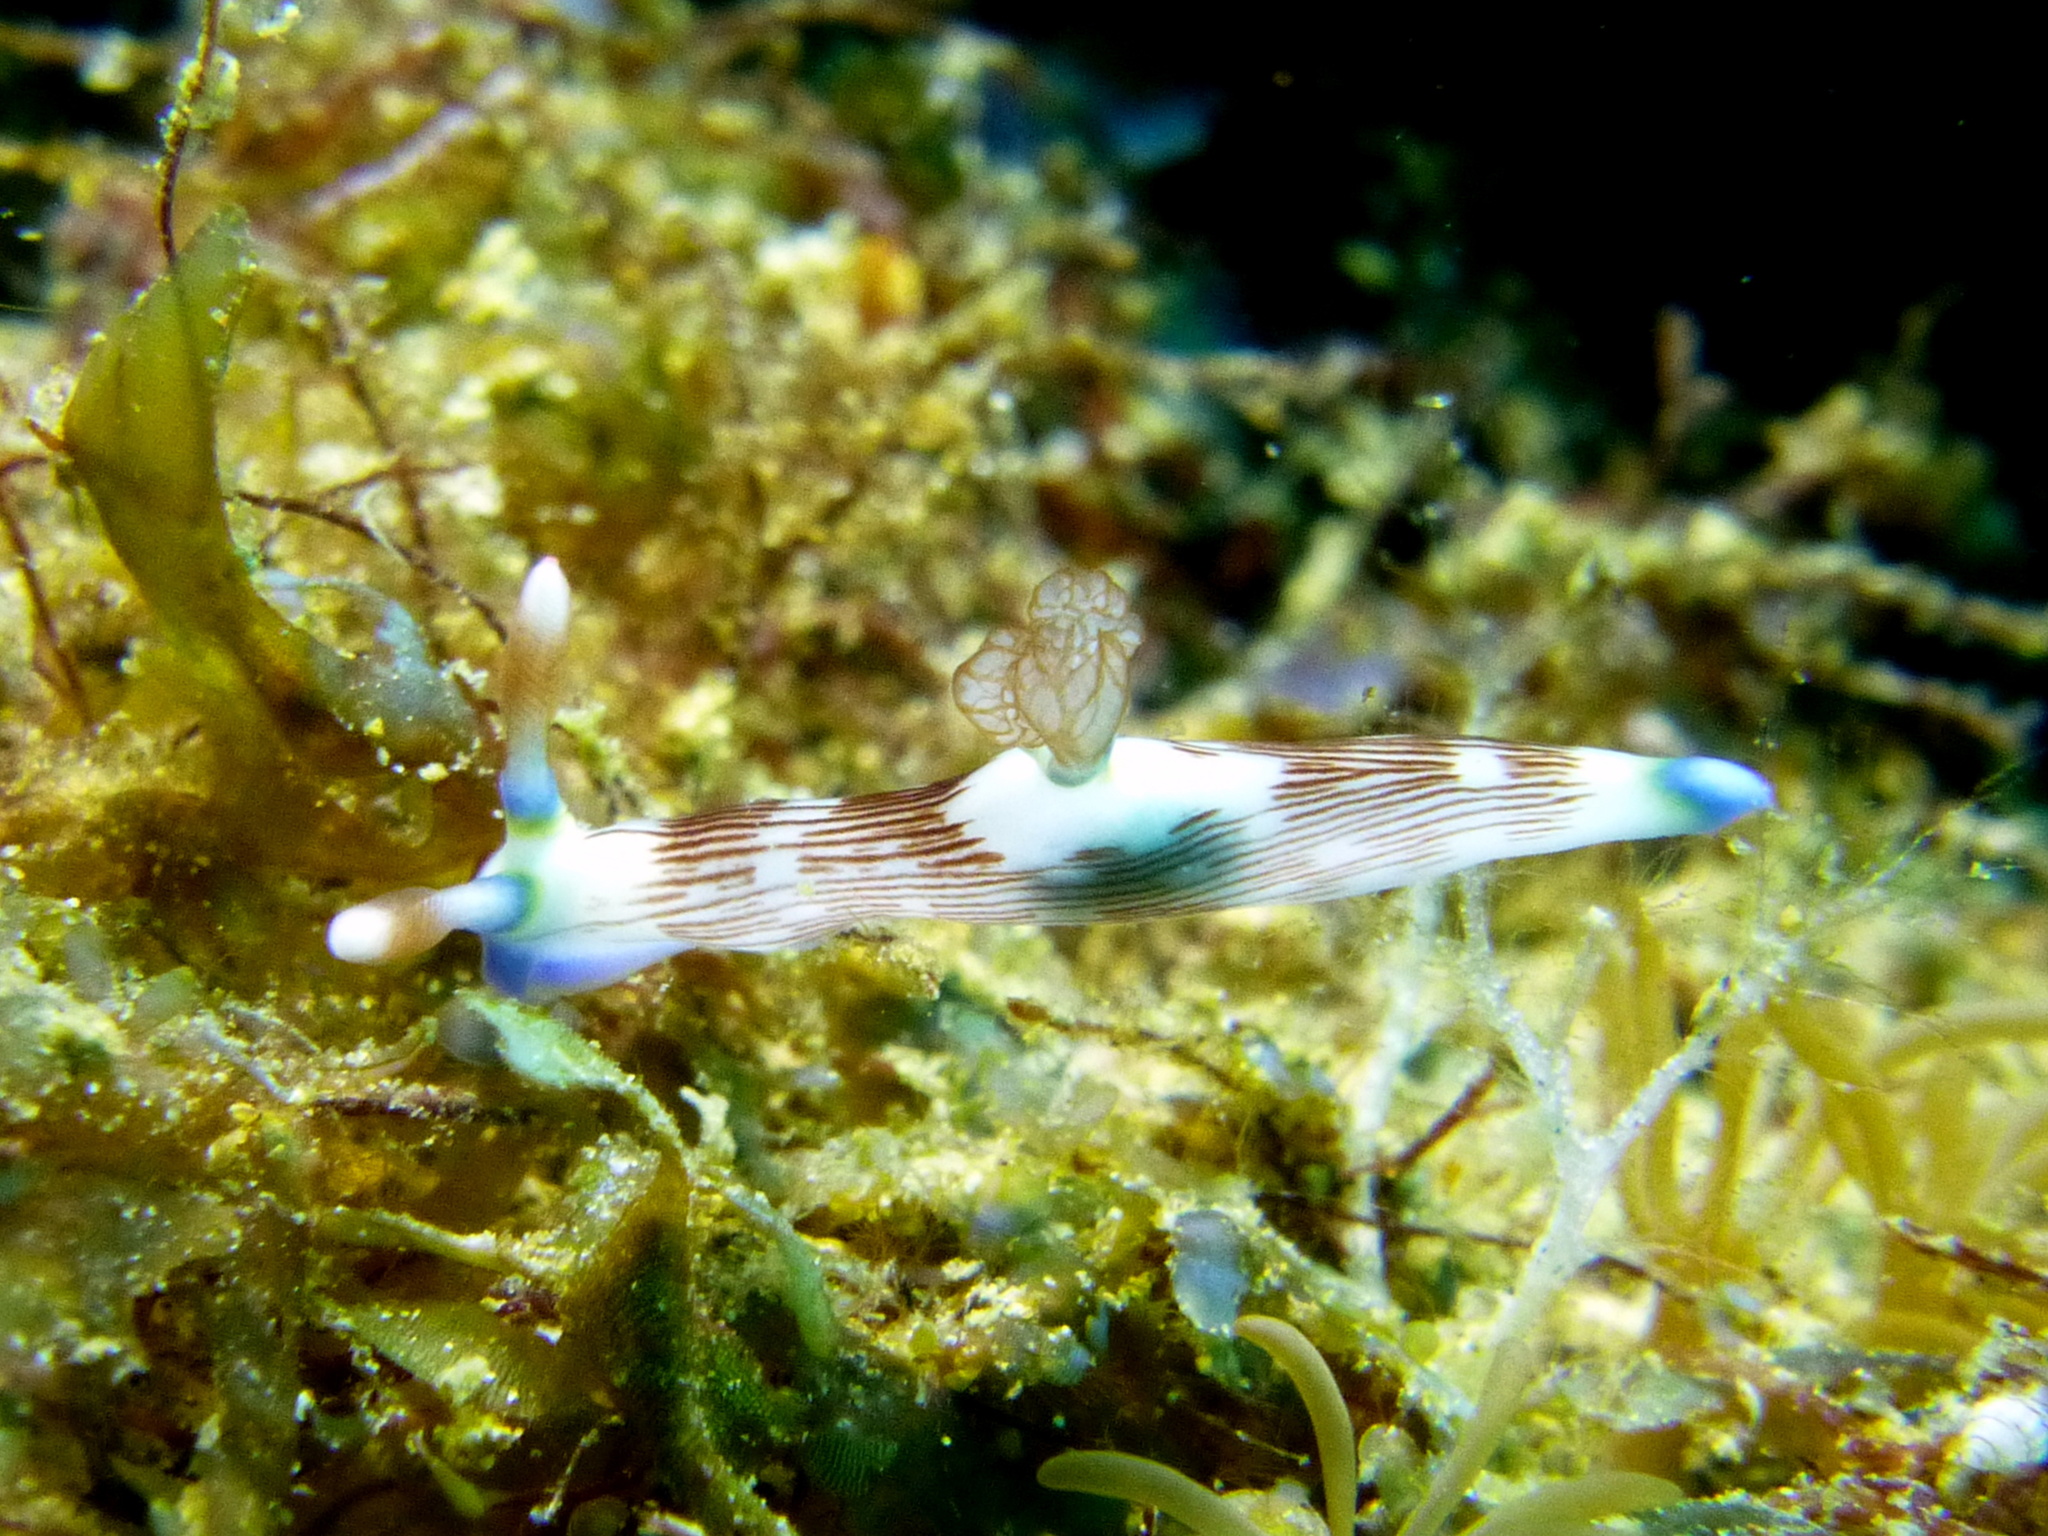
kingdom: Animalia
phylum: Mollusca
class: Gastropoda
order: Nudibranchia
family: Polyceridae
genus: Nembrotha
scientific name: Nembrotha lineolata
